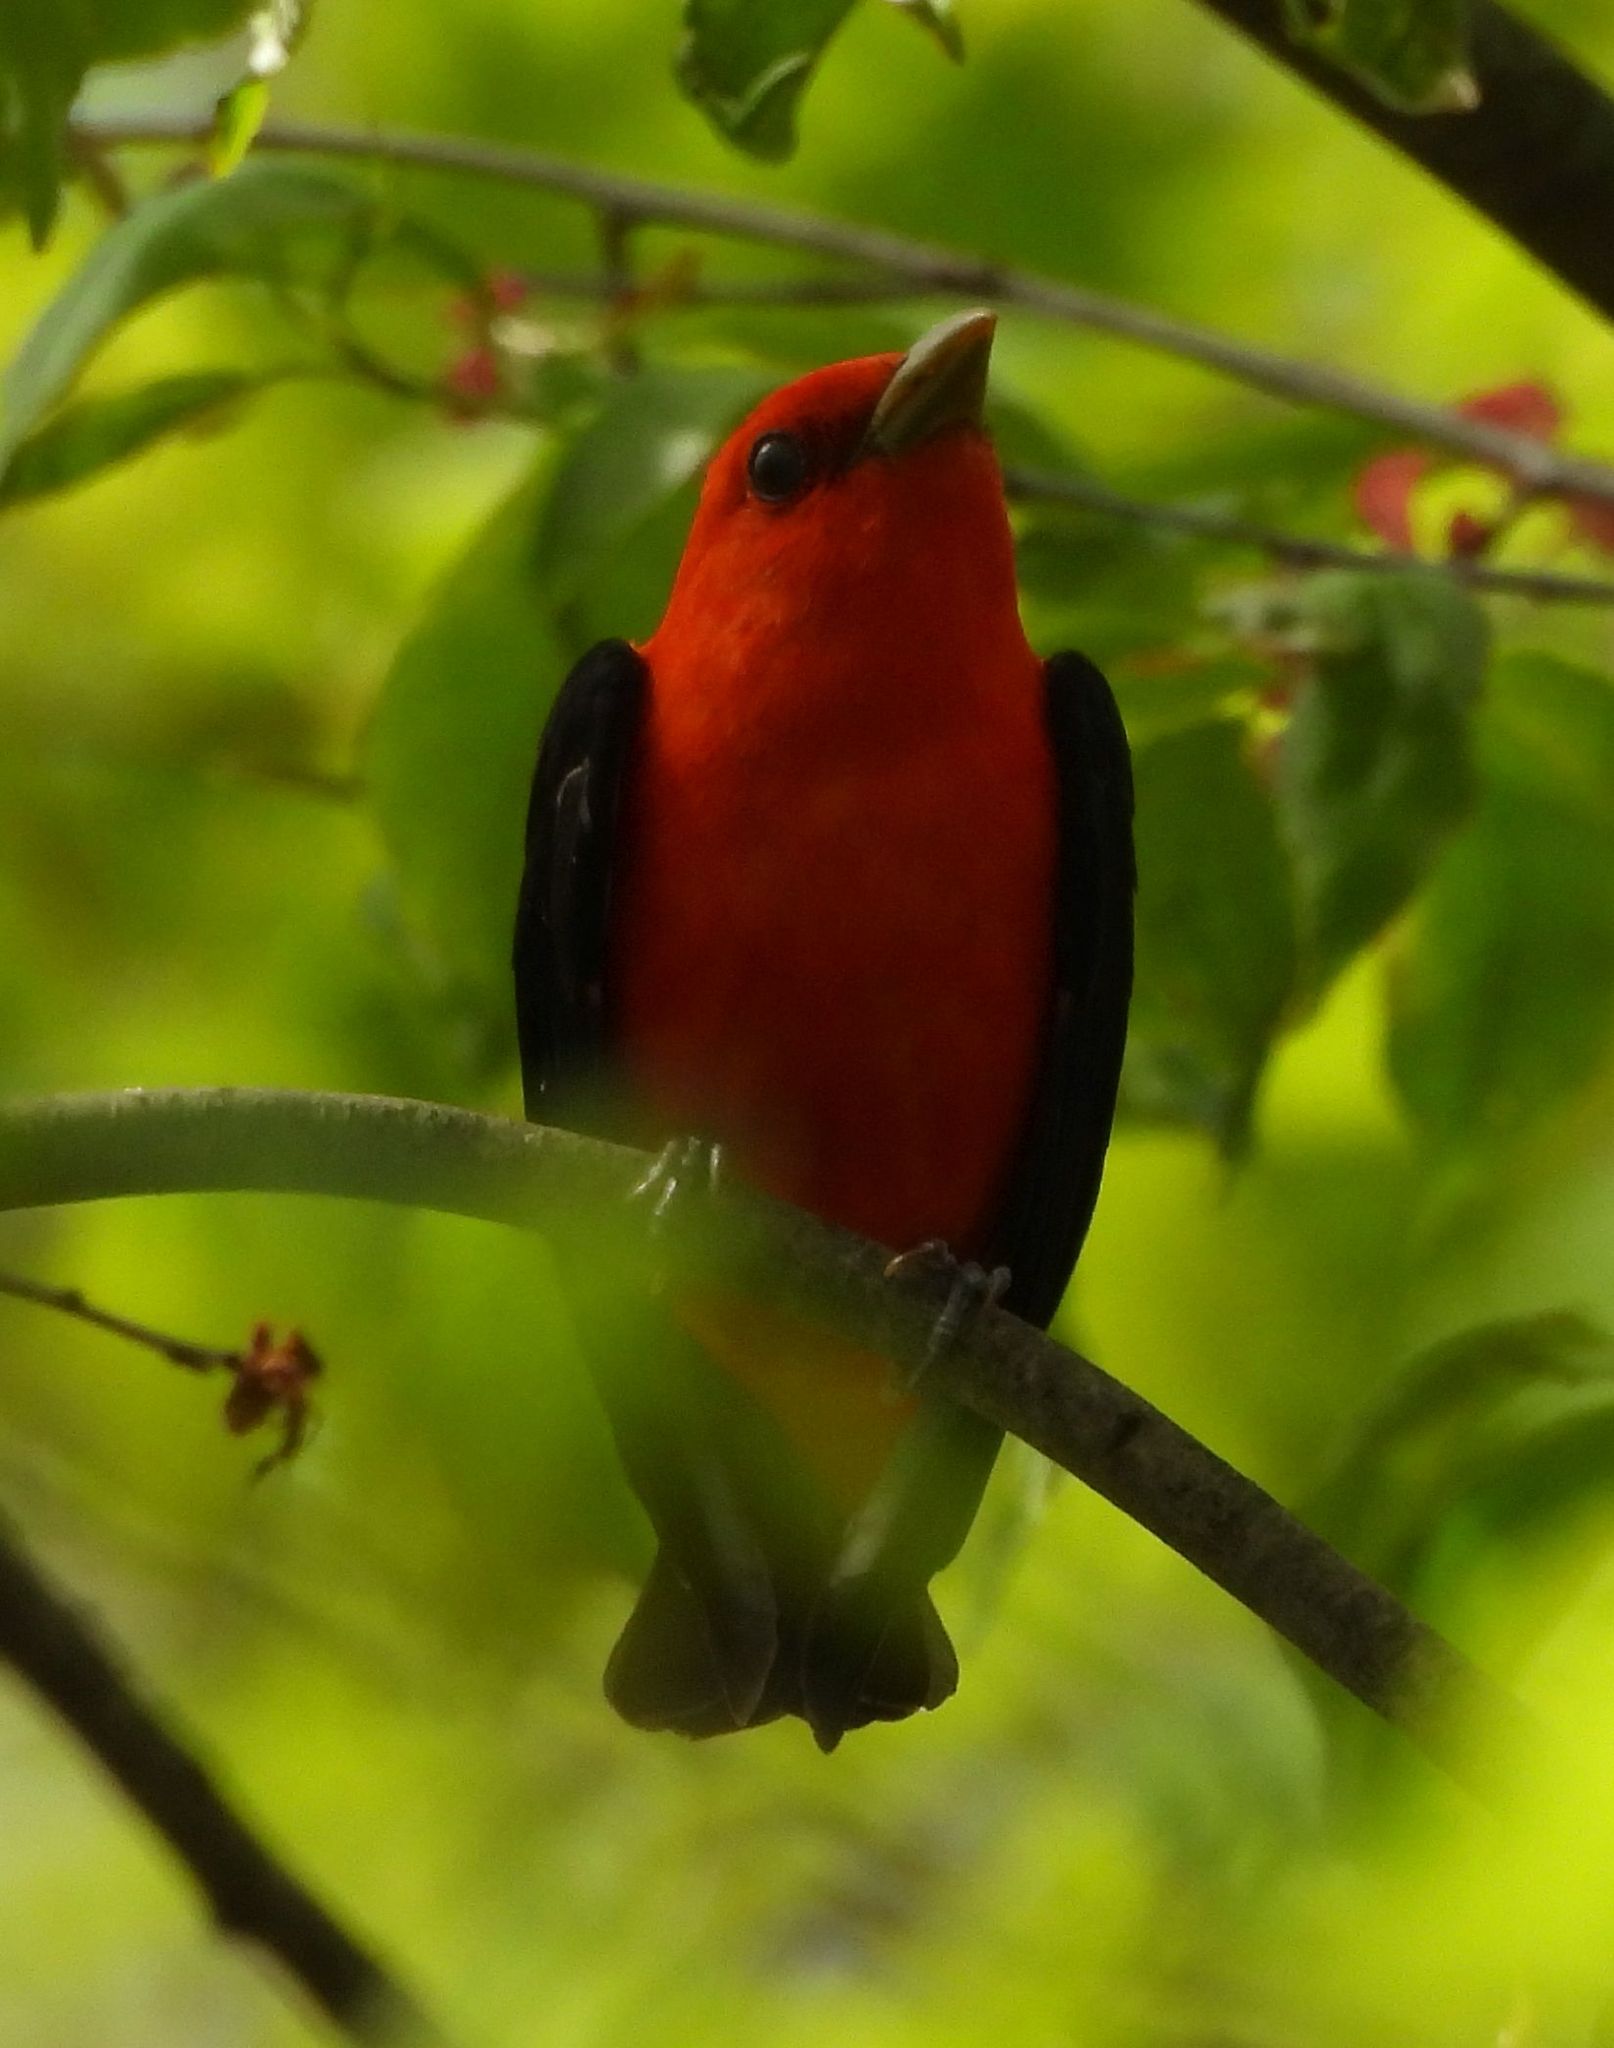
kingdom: Animalia
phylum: Chordata
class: Aves
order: Passeriformes
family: Cardinalidae
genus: Piranga
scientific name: Piranga olivacea
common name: Scarlet tanager
